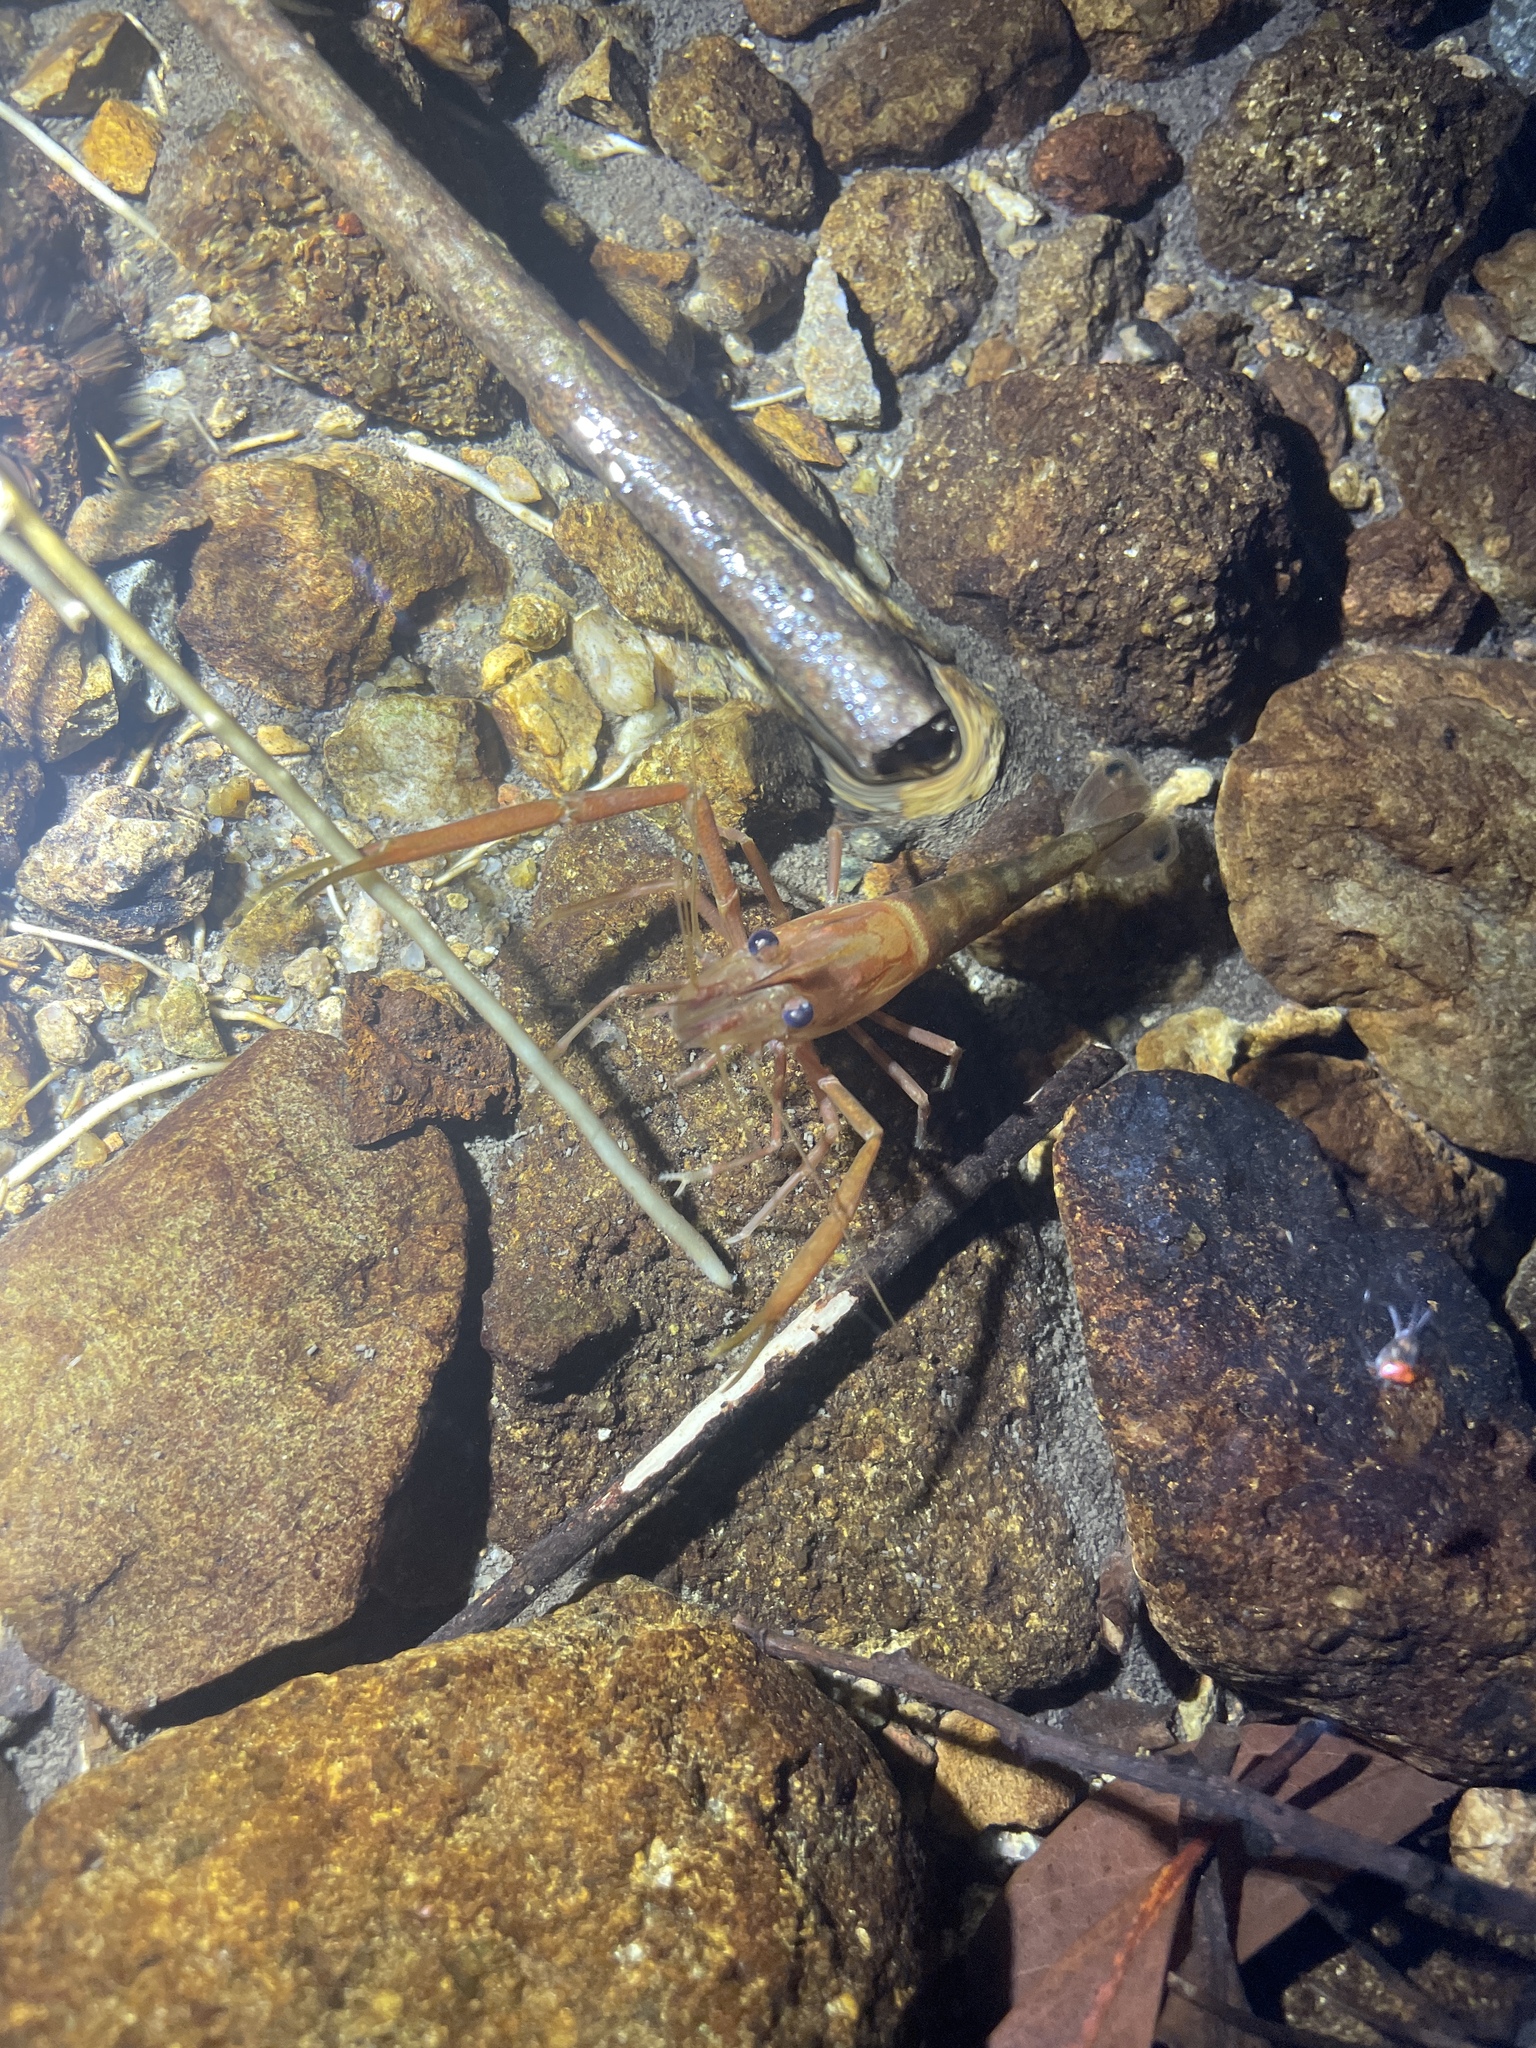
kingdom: Animalia
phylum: Arthropoda
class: Malacostraca
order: Decapoda
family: Palaemonidae
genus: Macrobrachium
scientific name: Macrobrachium laevis
